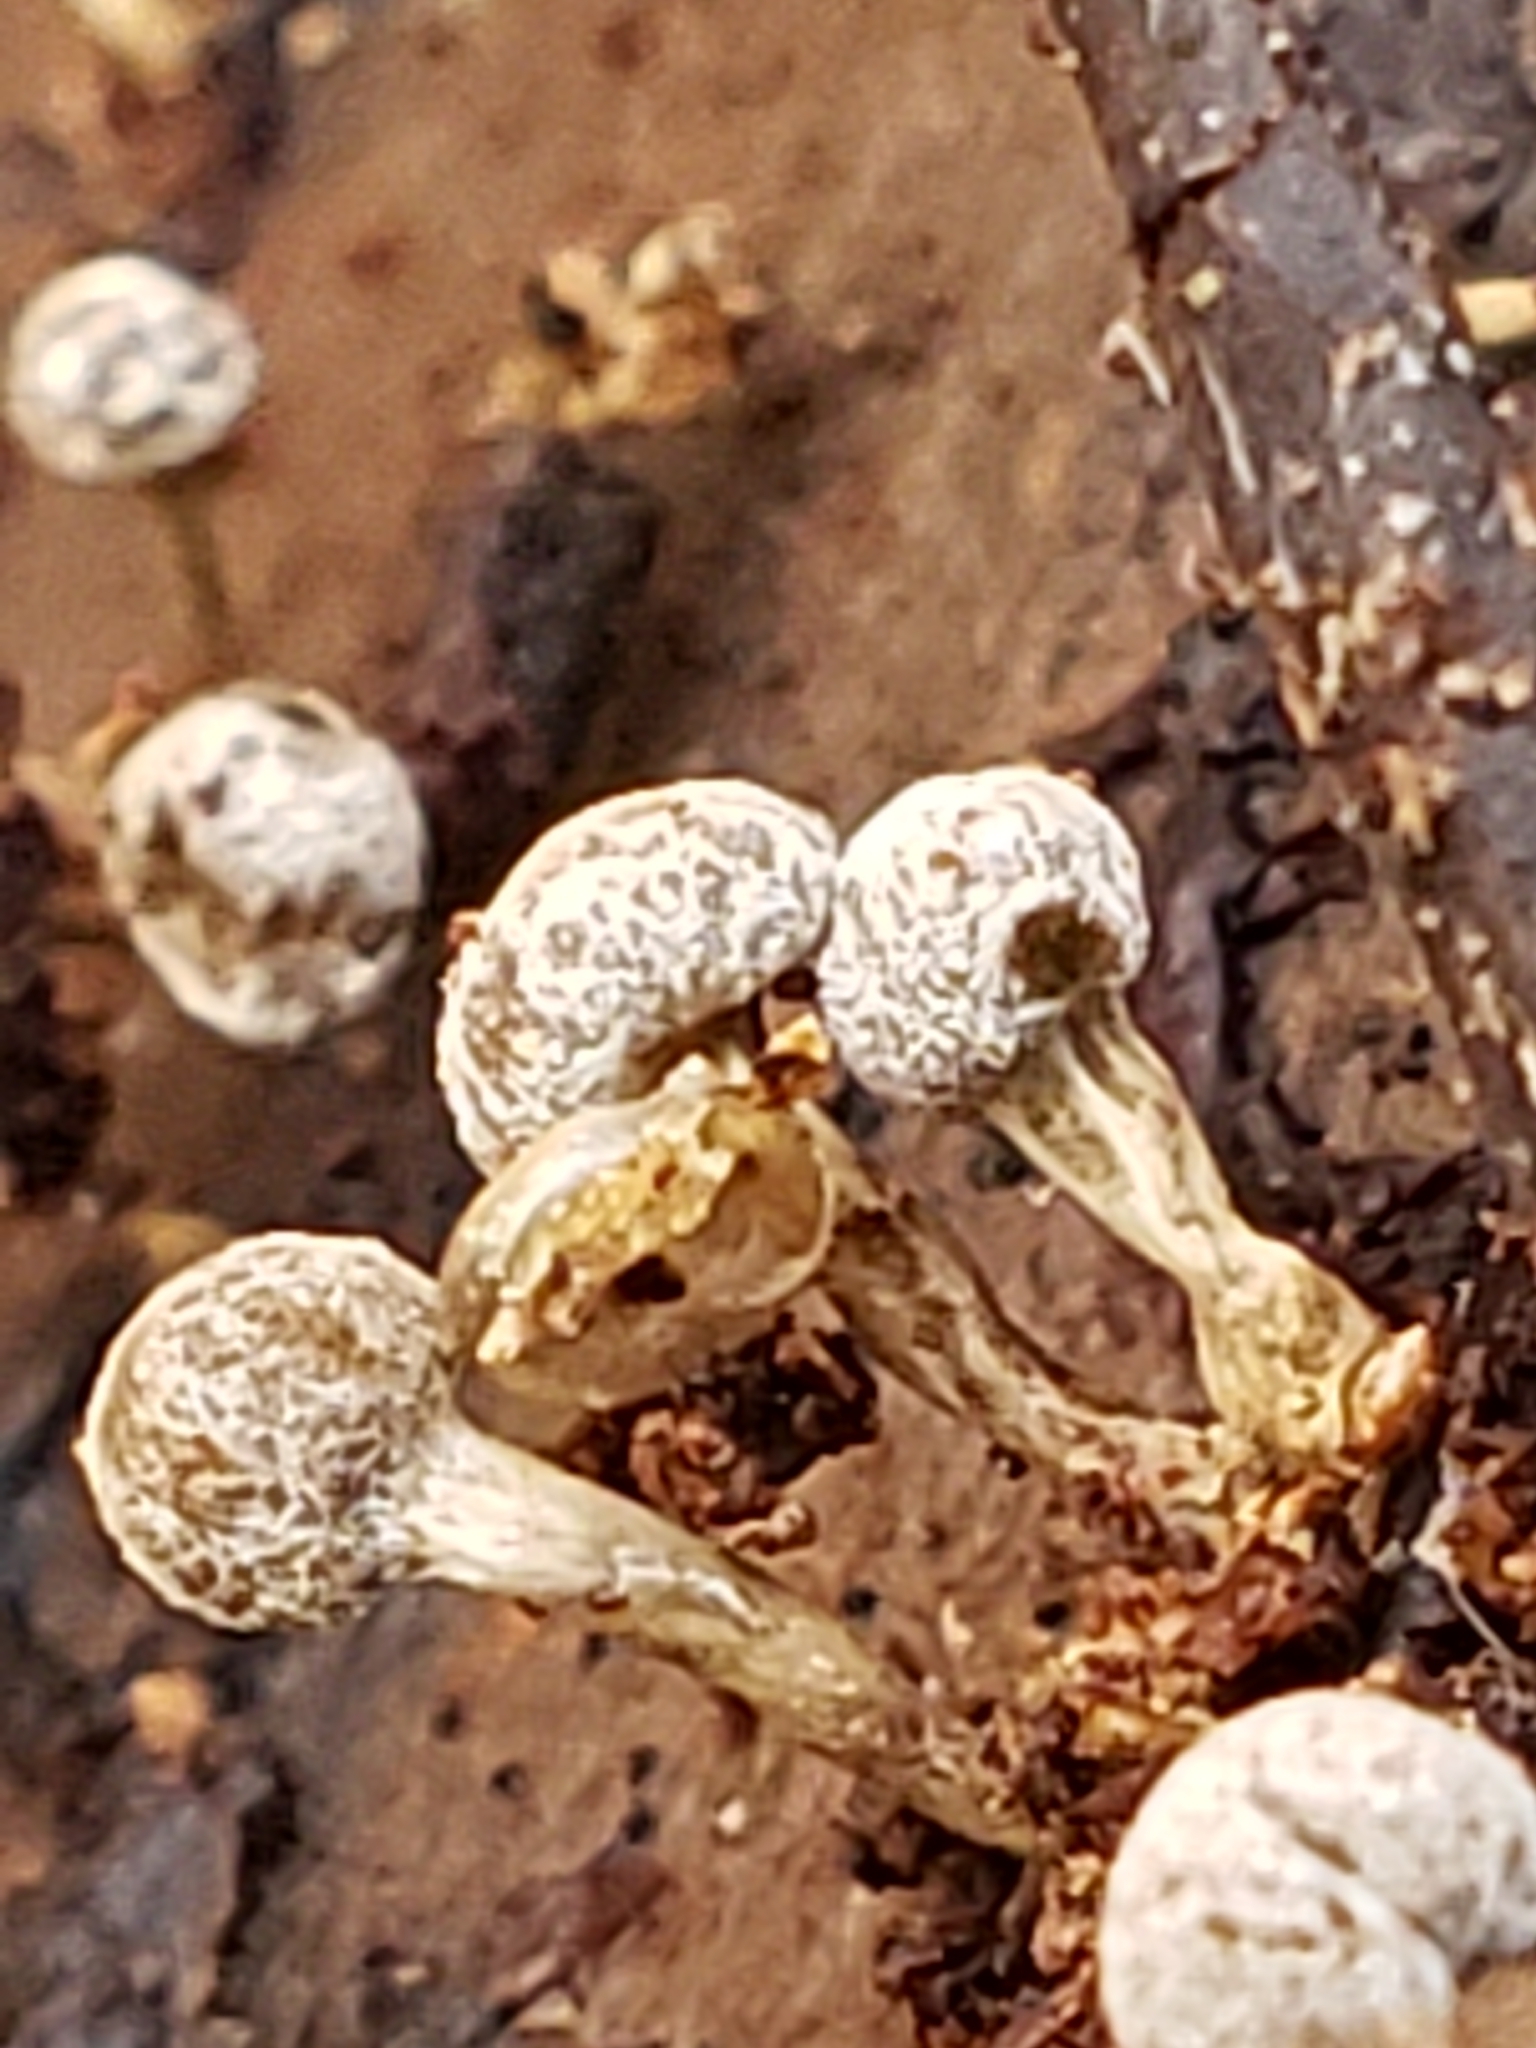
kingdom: Fungi
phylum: Basidiomycota
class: Atractiellomycetes
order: Atractiellales
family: Phleogenaceae
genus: Phleogena
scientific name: Phleogena faginea
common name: Fenugreek stalkball
